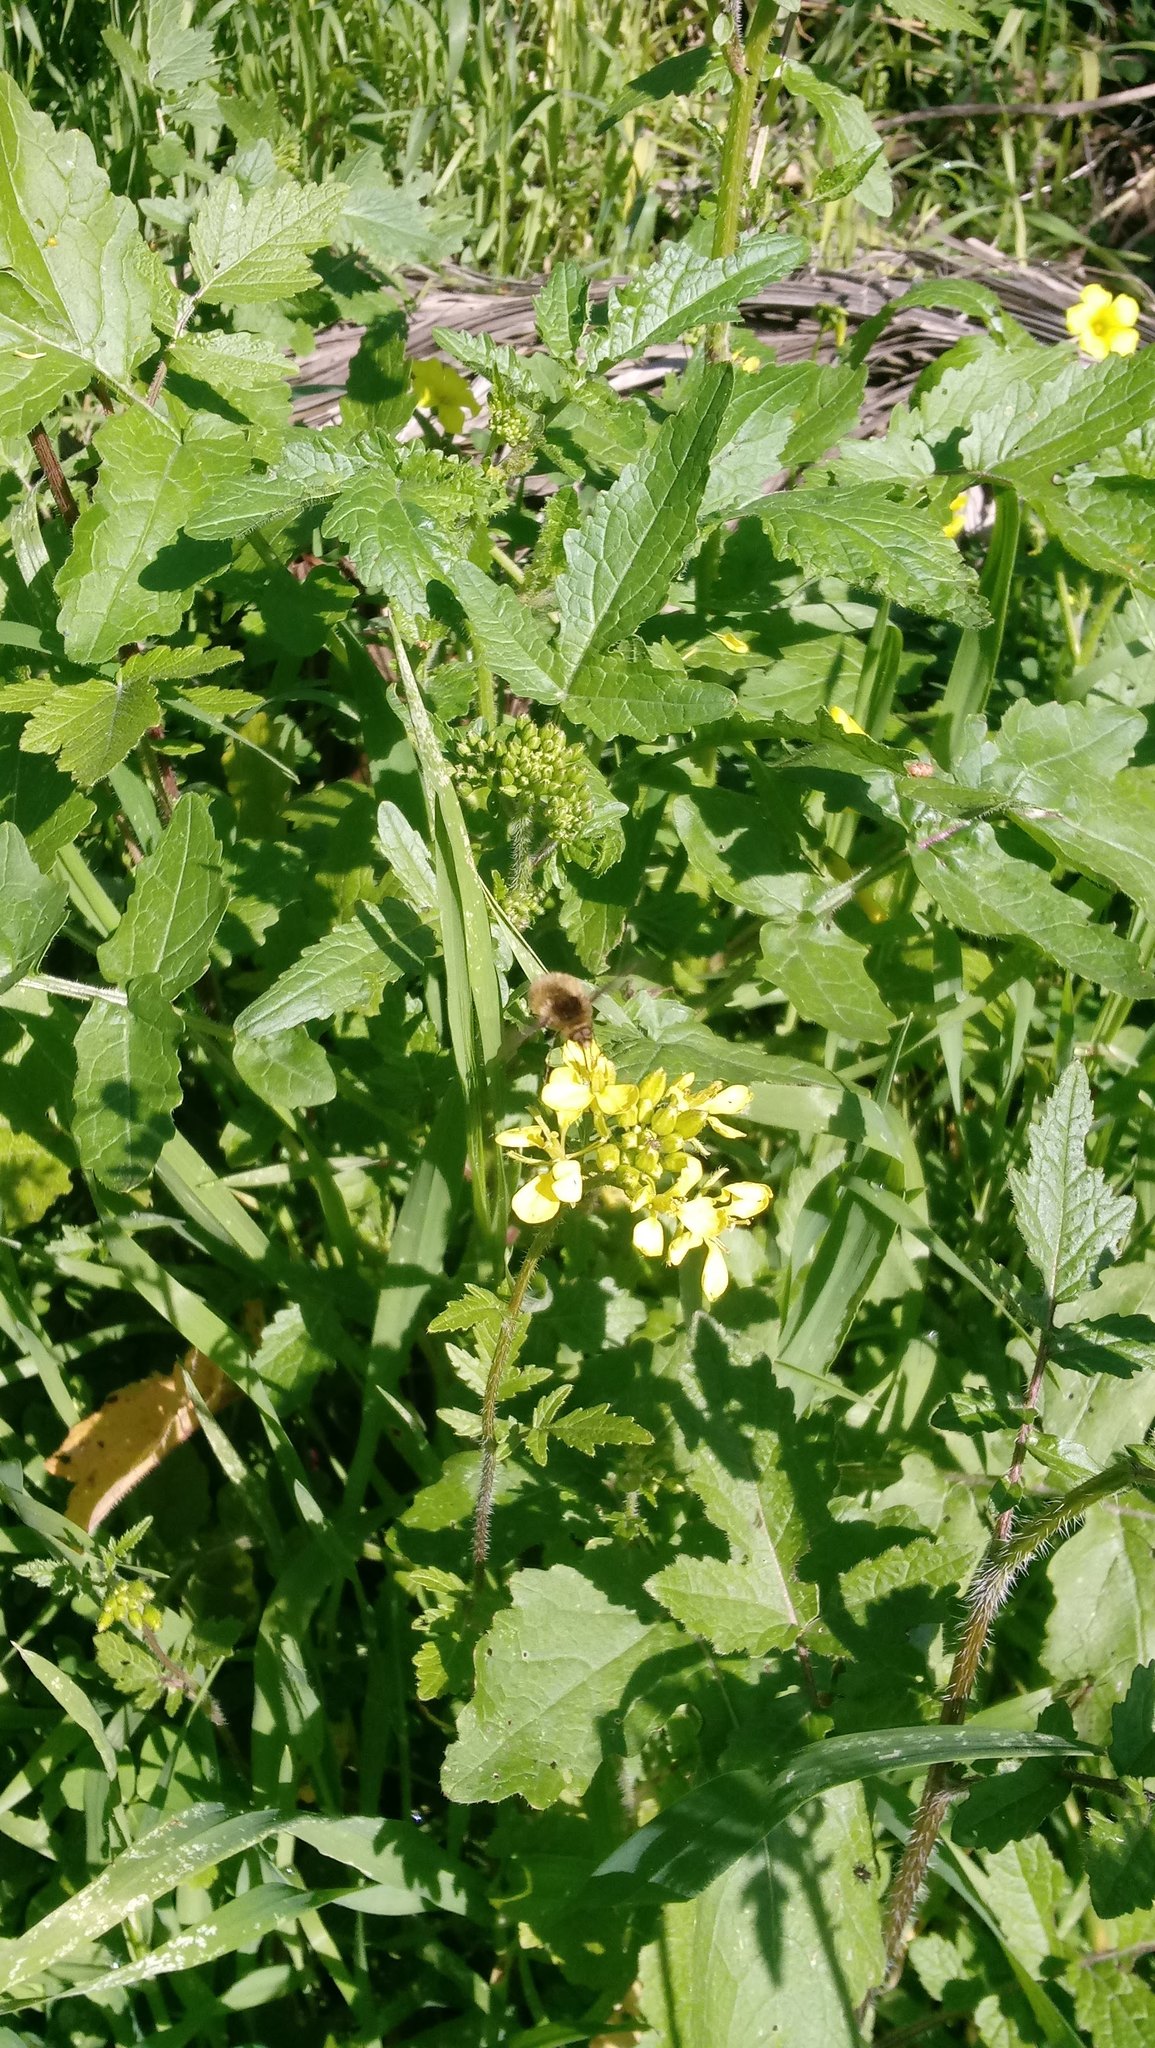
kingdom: Plantae
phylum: Tracheophyta
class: Magnoliopsida
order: Brassicales
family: Brassicaceae
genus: Sinapis
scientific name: Sinapis alba
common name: White mustard
